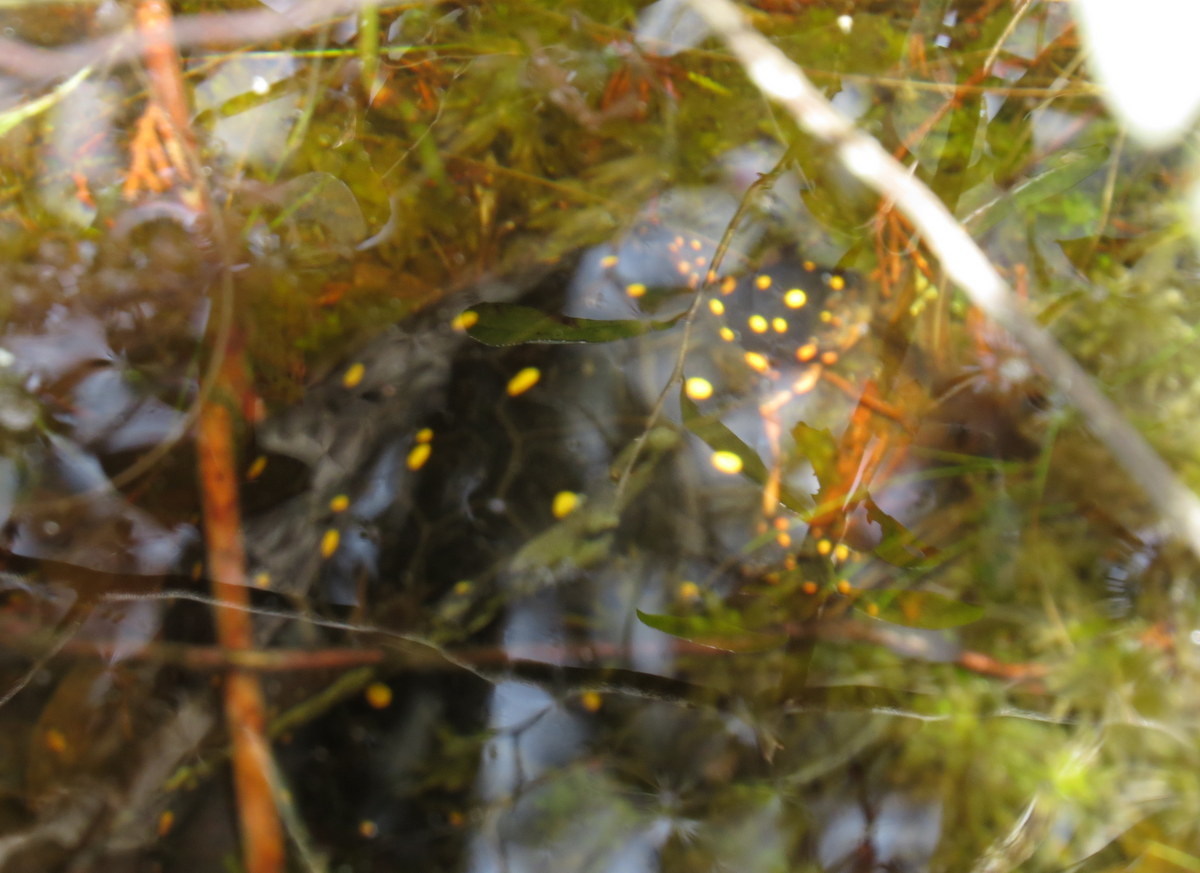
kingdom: Animalia
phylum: Chordata
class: Testudines
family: Emydidae
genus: Clemmys
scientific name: Clemmys guttata
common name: Spotted turtle
